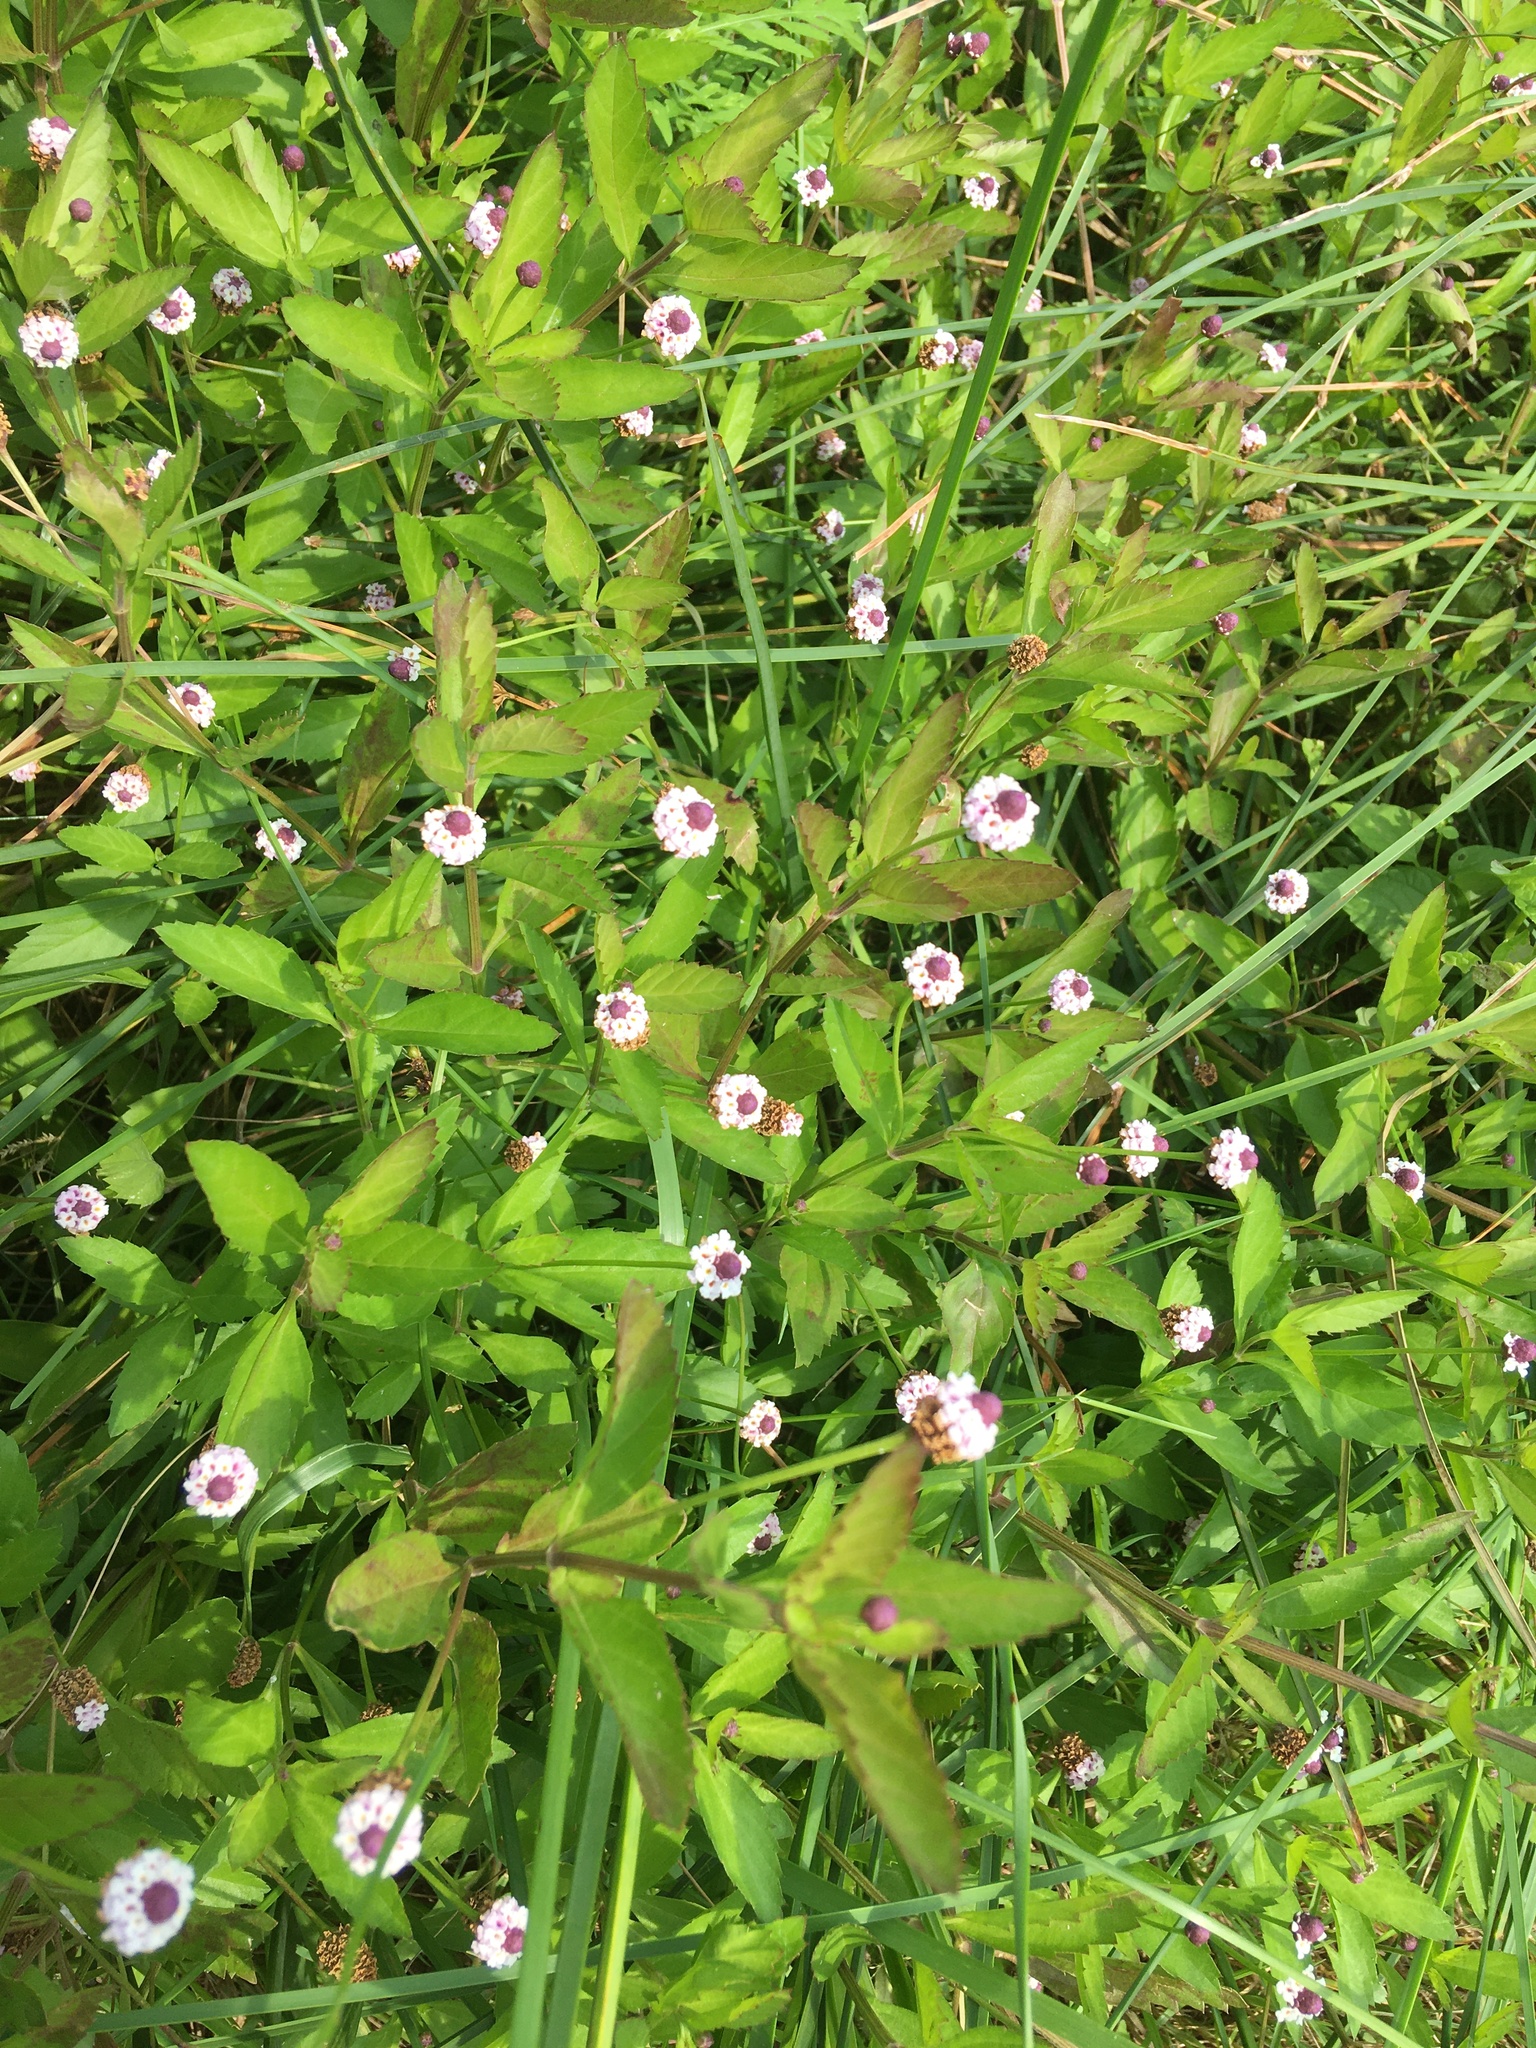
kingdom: Plantae
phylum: Tracheophyta
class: Magnoliopsida
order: Lamiales
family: Verbenaceae
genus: Phyla
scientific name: Phyla lanceolata
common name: Northern fogfruit
